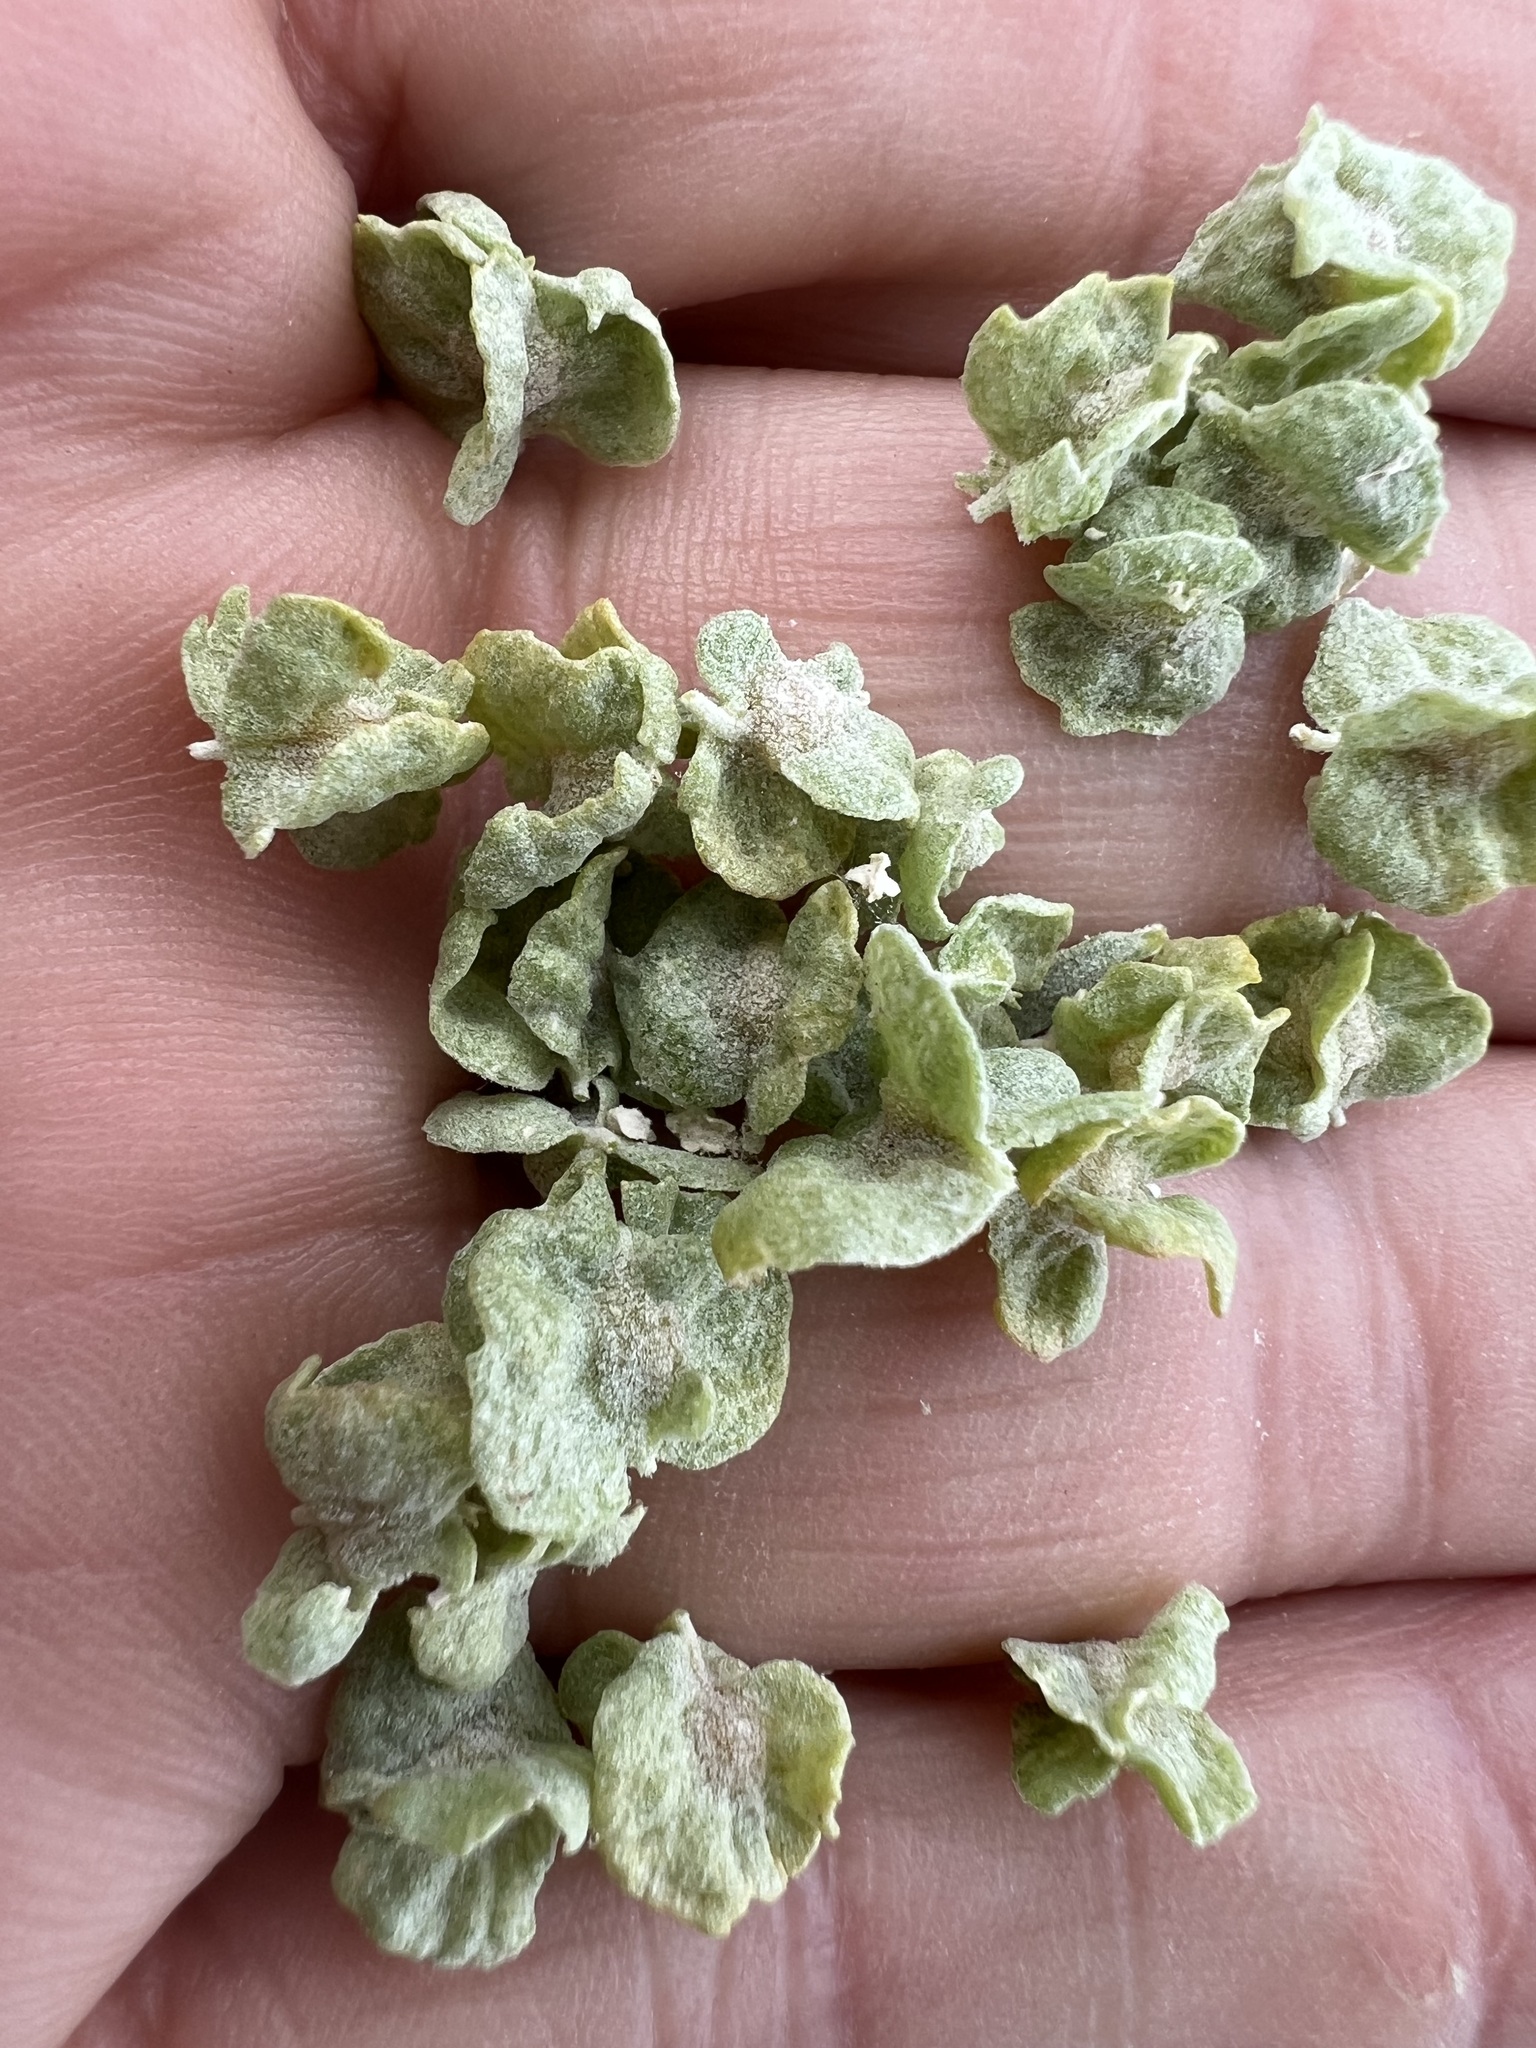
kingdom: Plantae
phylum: Tracheophyta
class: Magnoliopsida
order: Caryophyllales
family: Amaranthaceae
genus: Atriplex
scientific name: Atriplex canescens
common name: Four-wing saltbush
